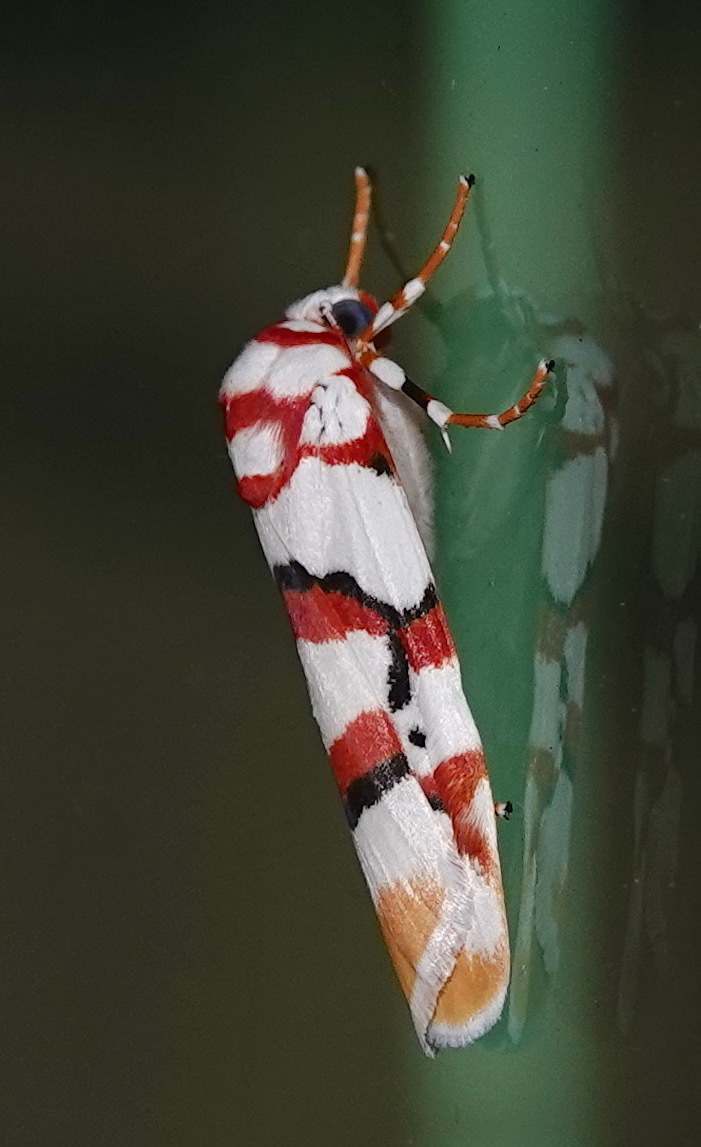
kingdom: Animalia
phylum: Arthropoda
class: Insecta
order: Lepidoptera
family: Erebidae
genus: Cyana
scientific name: Cyana cruentata
